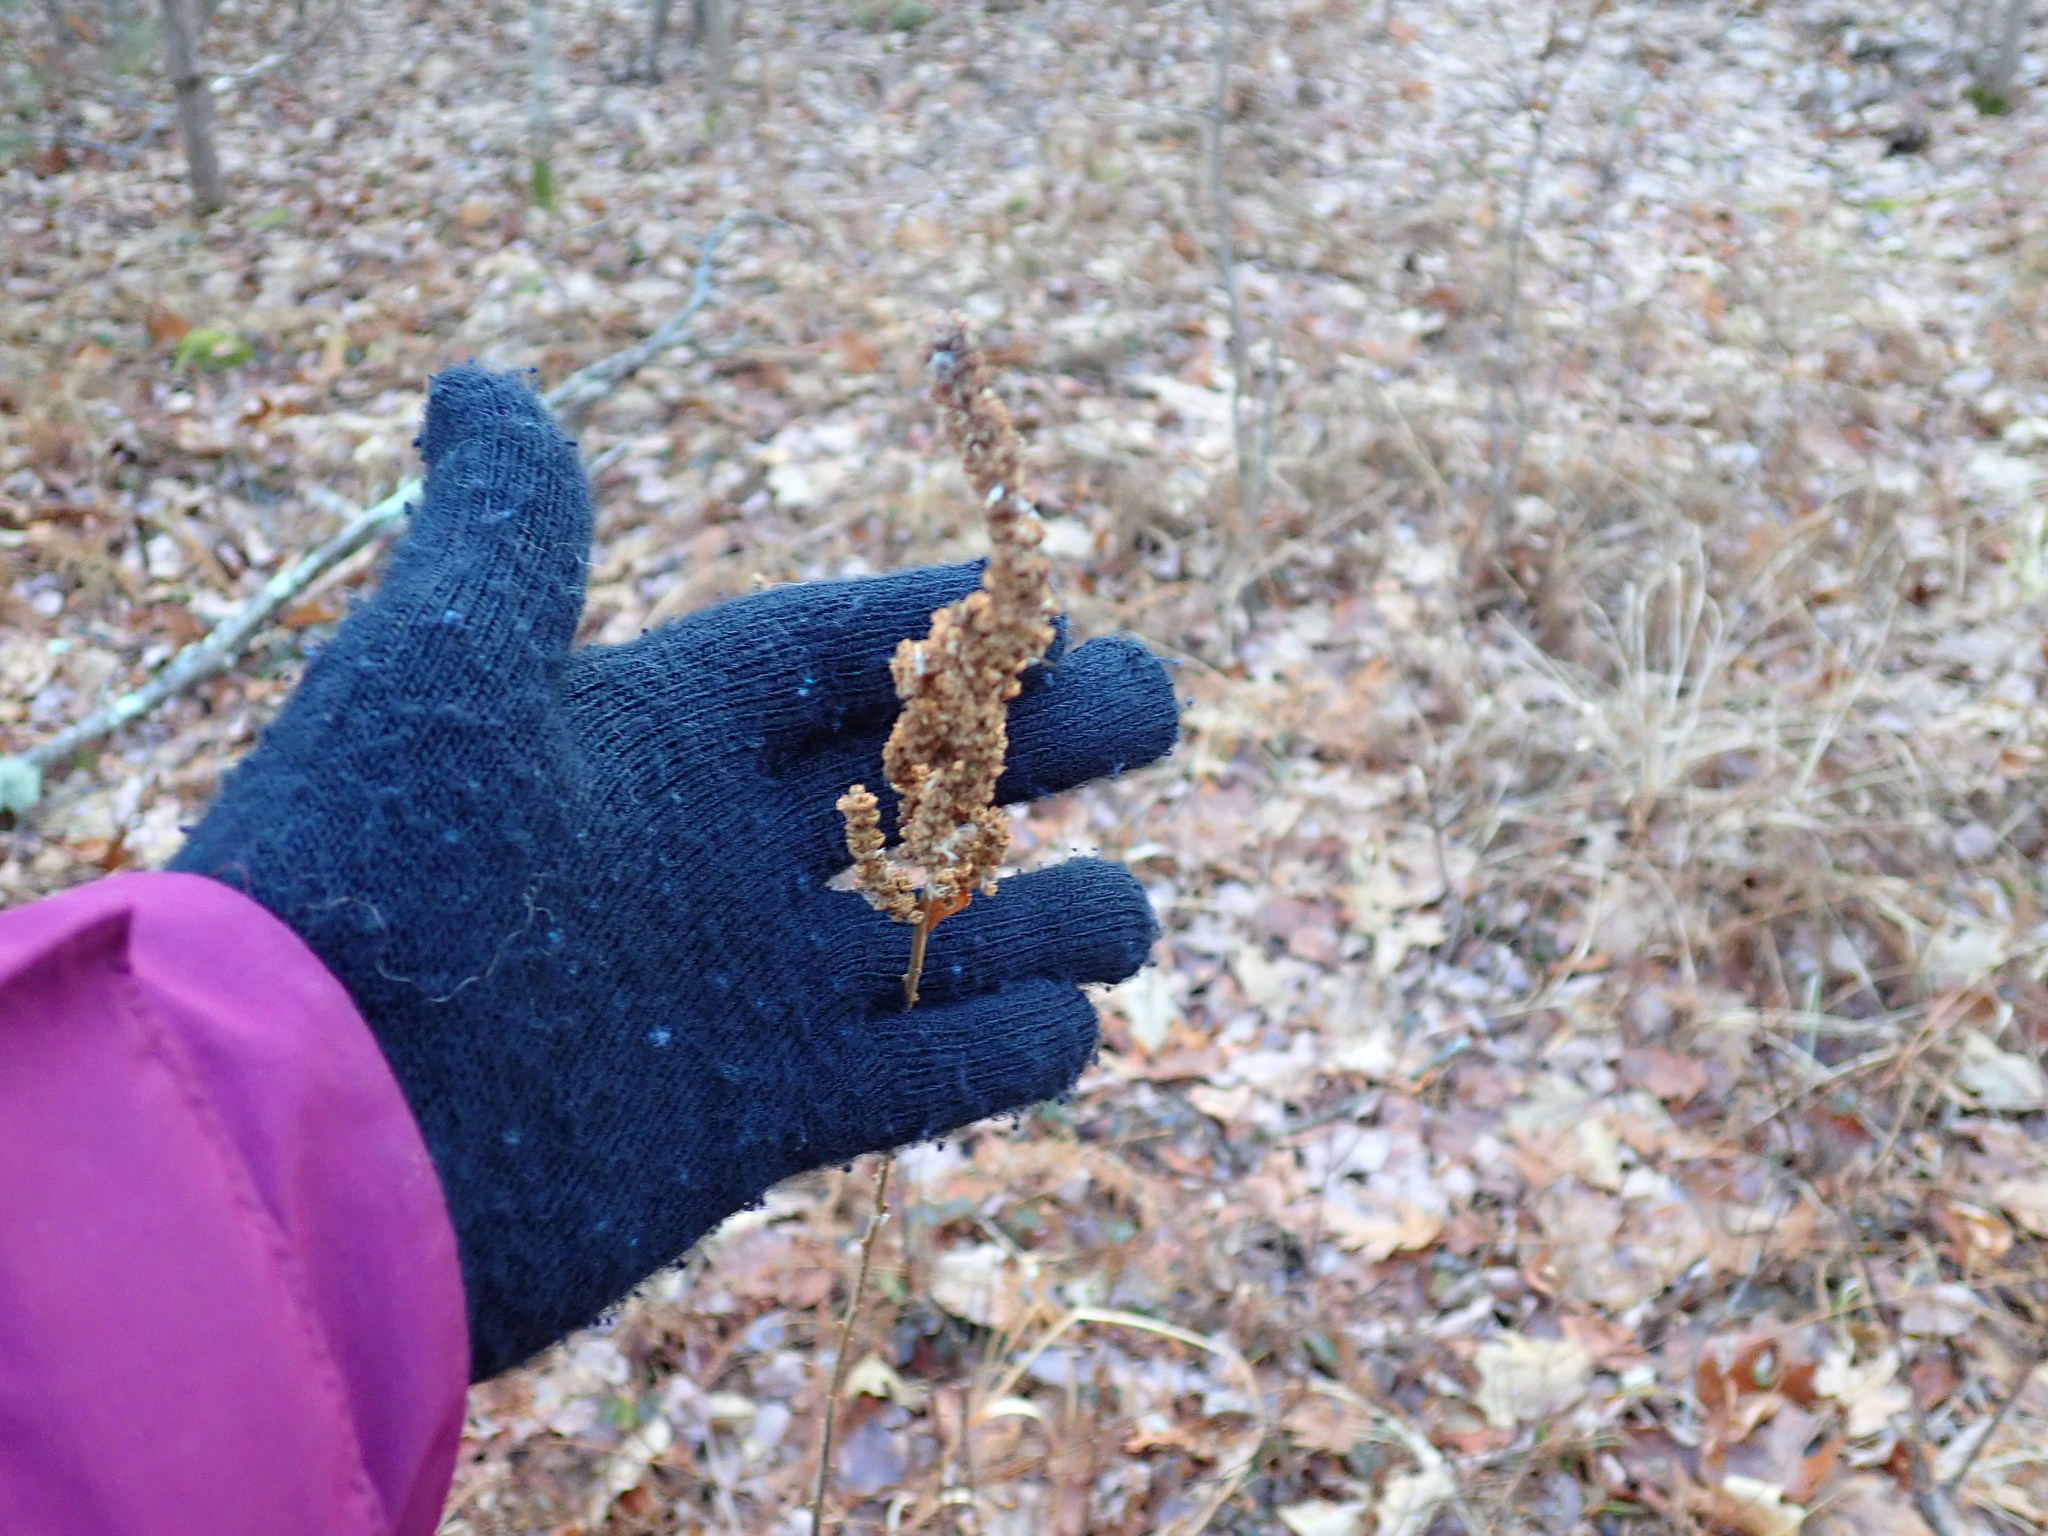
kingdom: Plantae
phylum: Tracheophyta
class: Magnoliopsida
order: Rosales
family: Rosaceae
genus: Spiraea
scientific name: Spiraea tomentosa
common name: Hardhack
